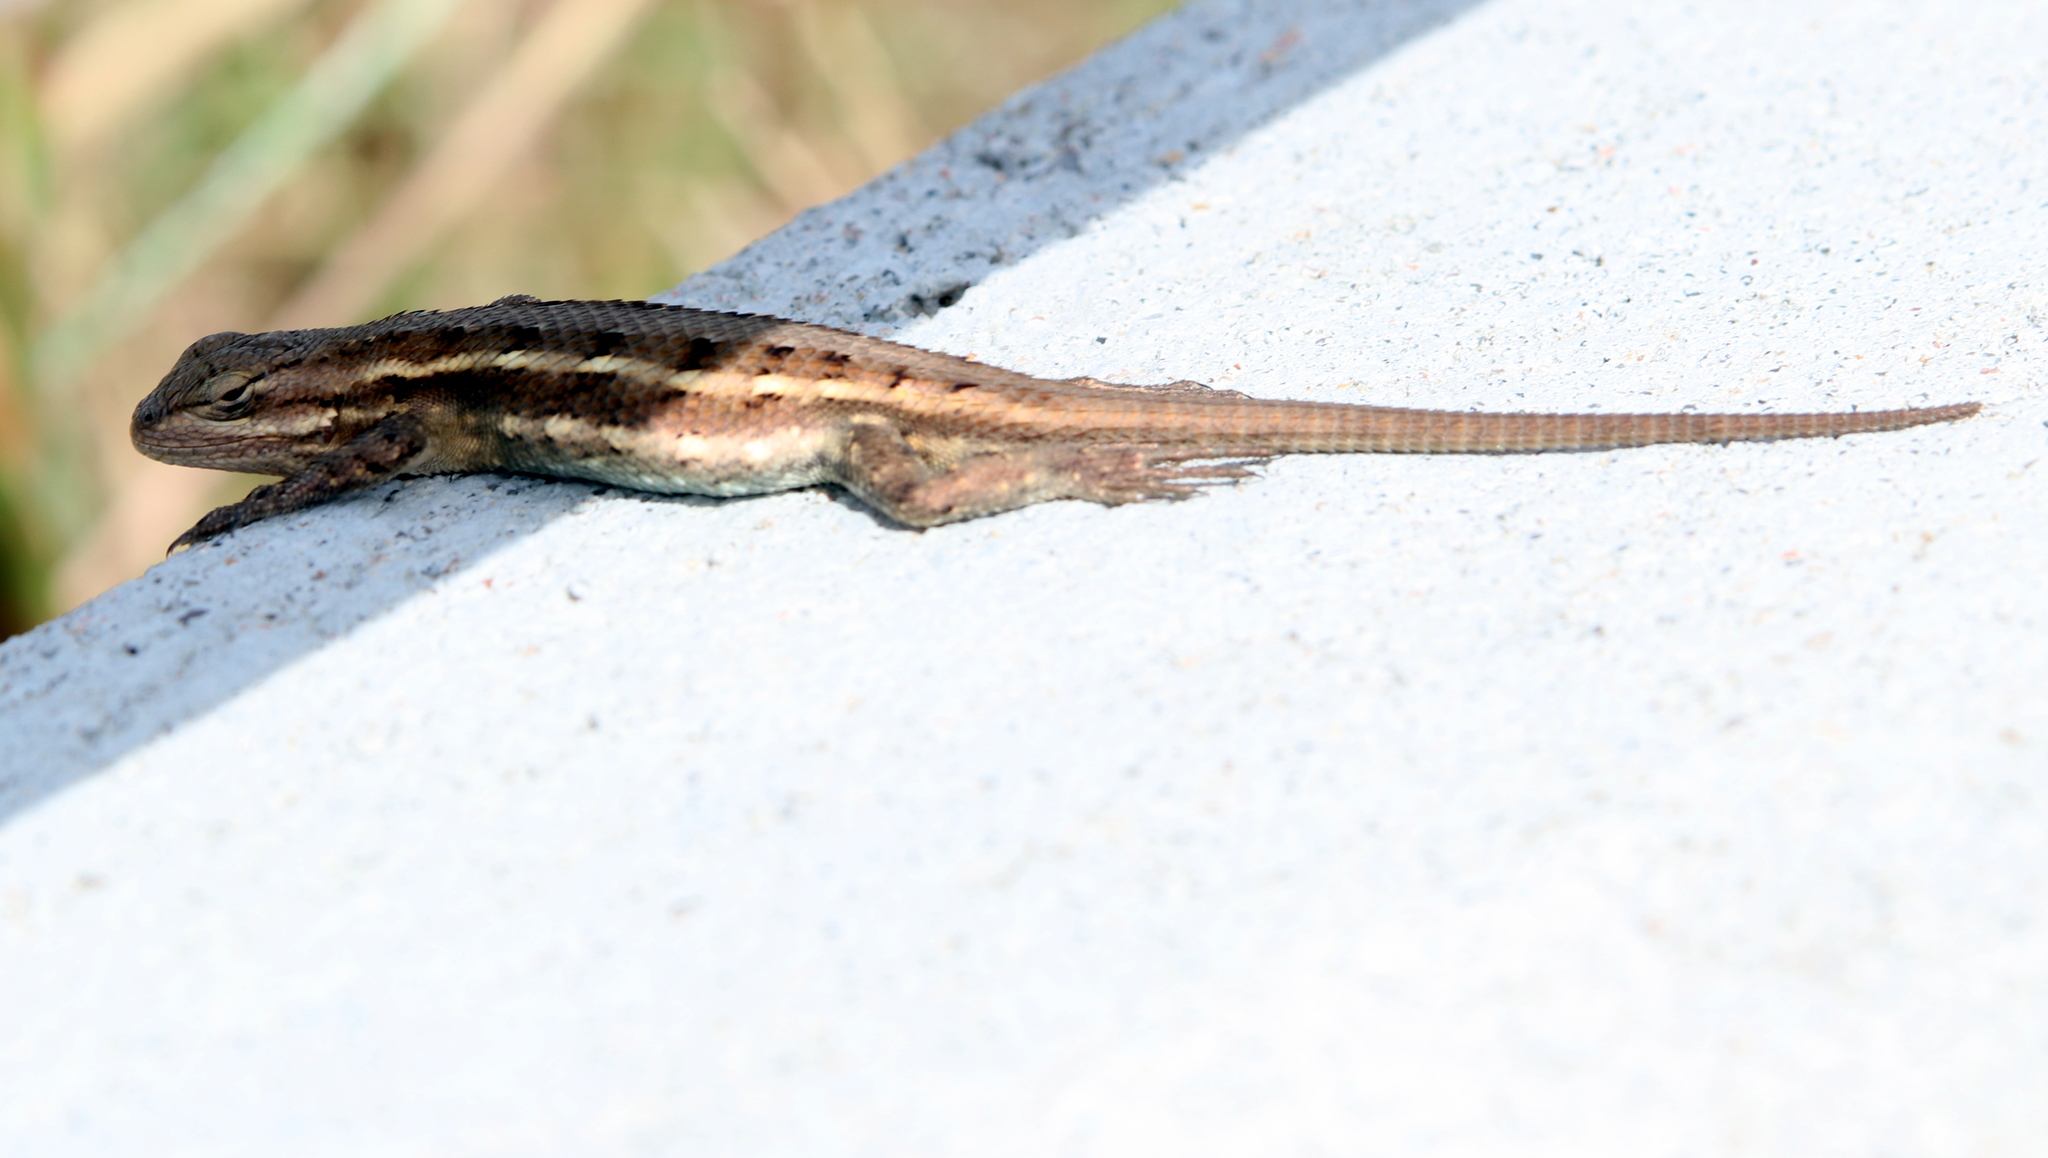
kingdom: Animalia
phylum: Chordata
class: Squamata
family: Phrynosomatidae
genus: Sceloporus
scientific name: Sceloporus consobrinus
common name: Southern prairie lizard
